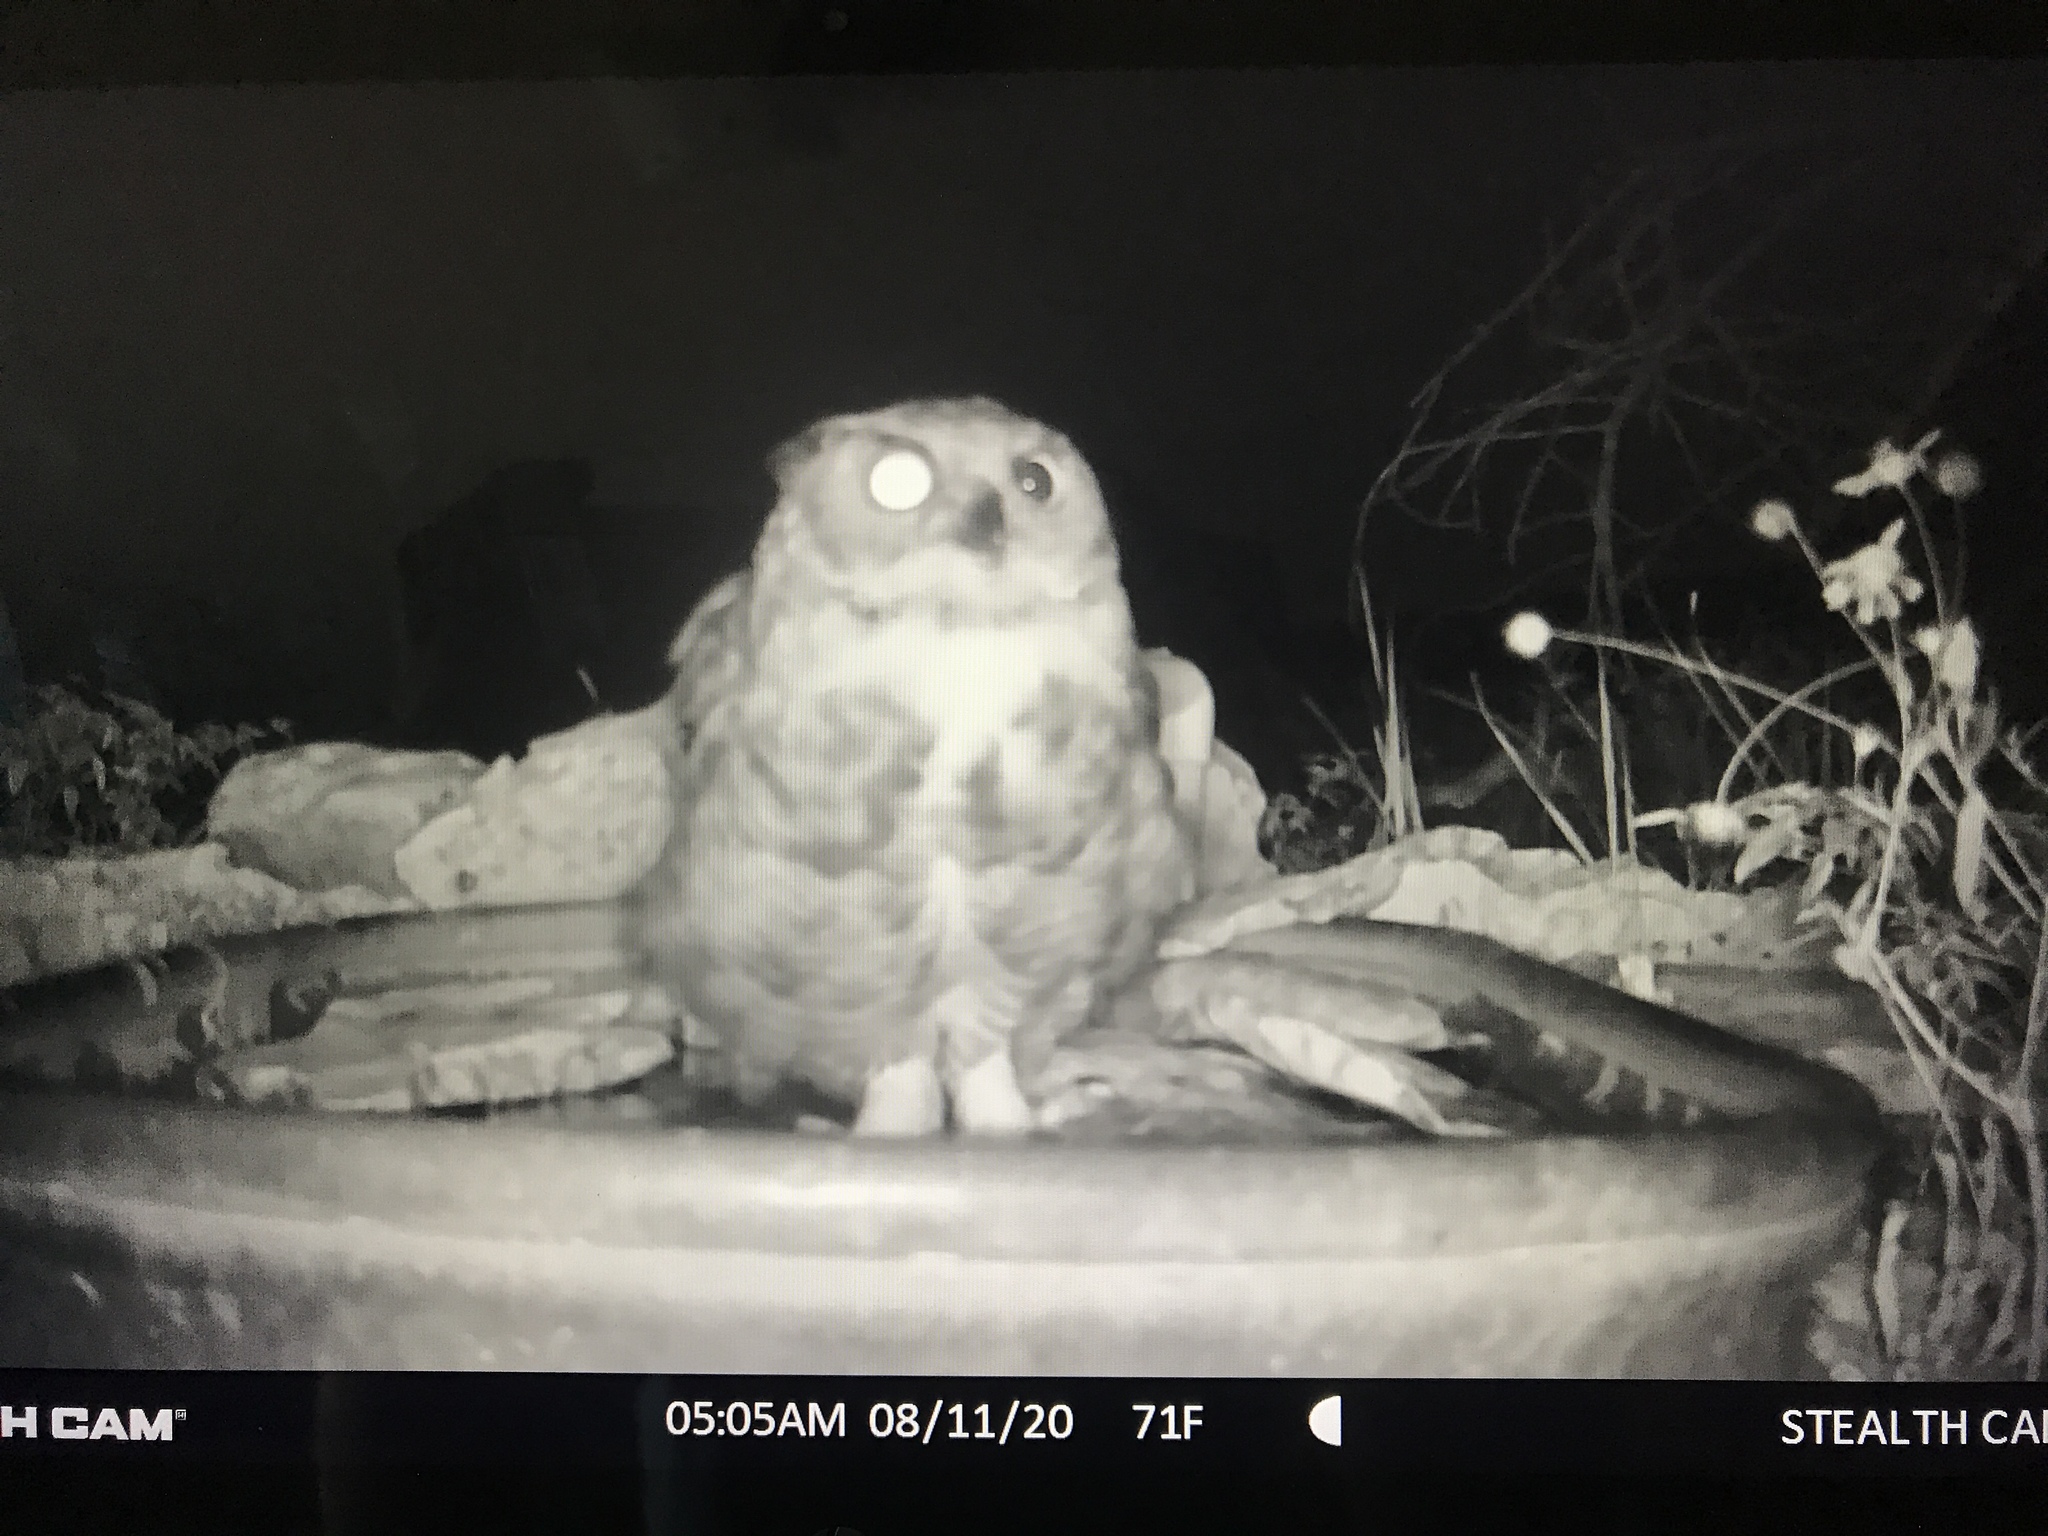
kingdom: Animalia
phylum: Chordata
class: Aves
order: Strigiformes
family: Strigidae
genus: Bubo
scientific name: Bubo virginianus
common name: Great horned owl
